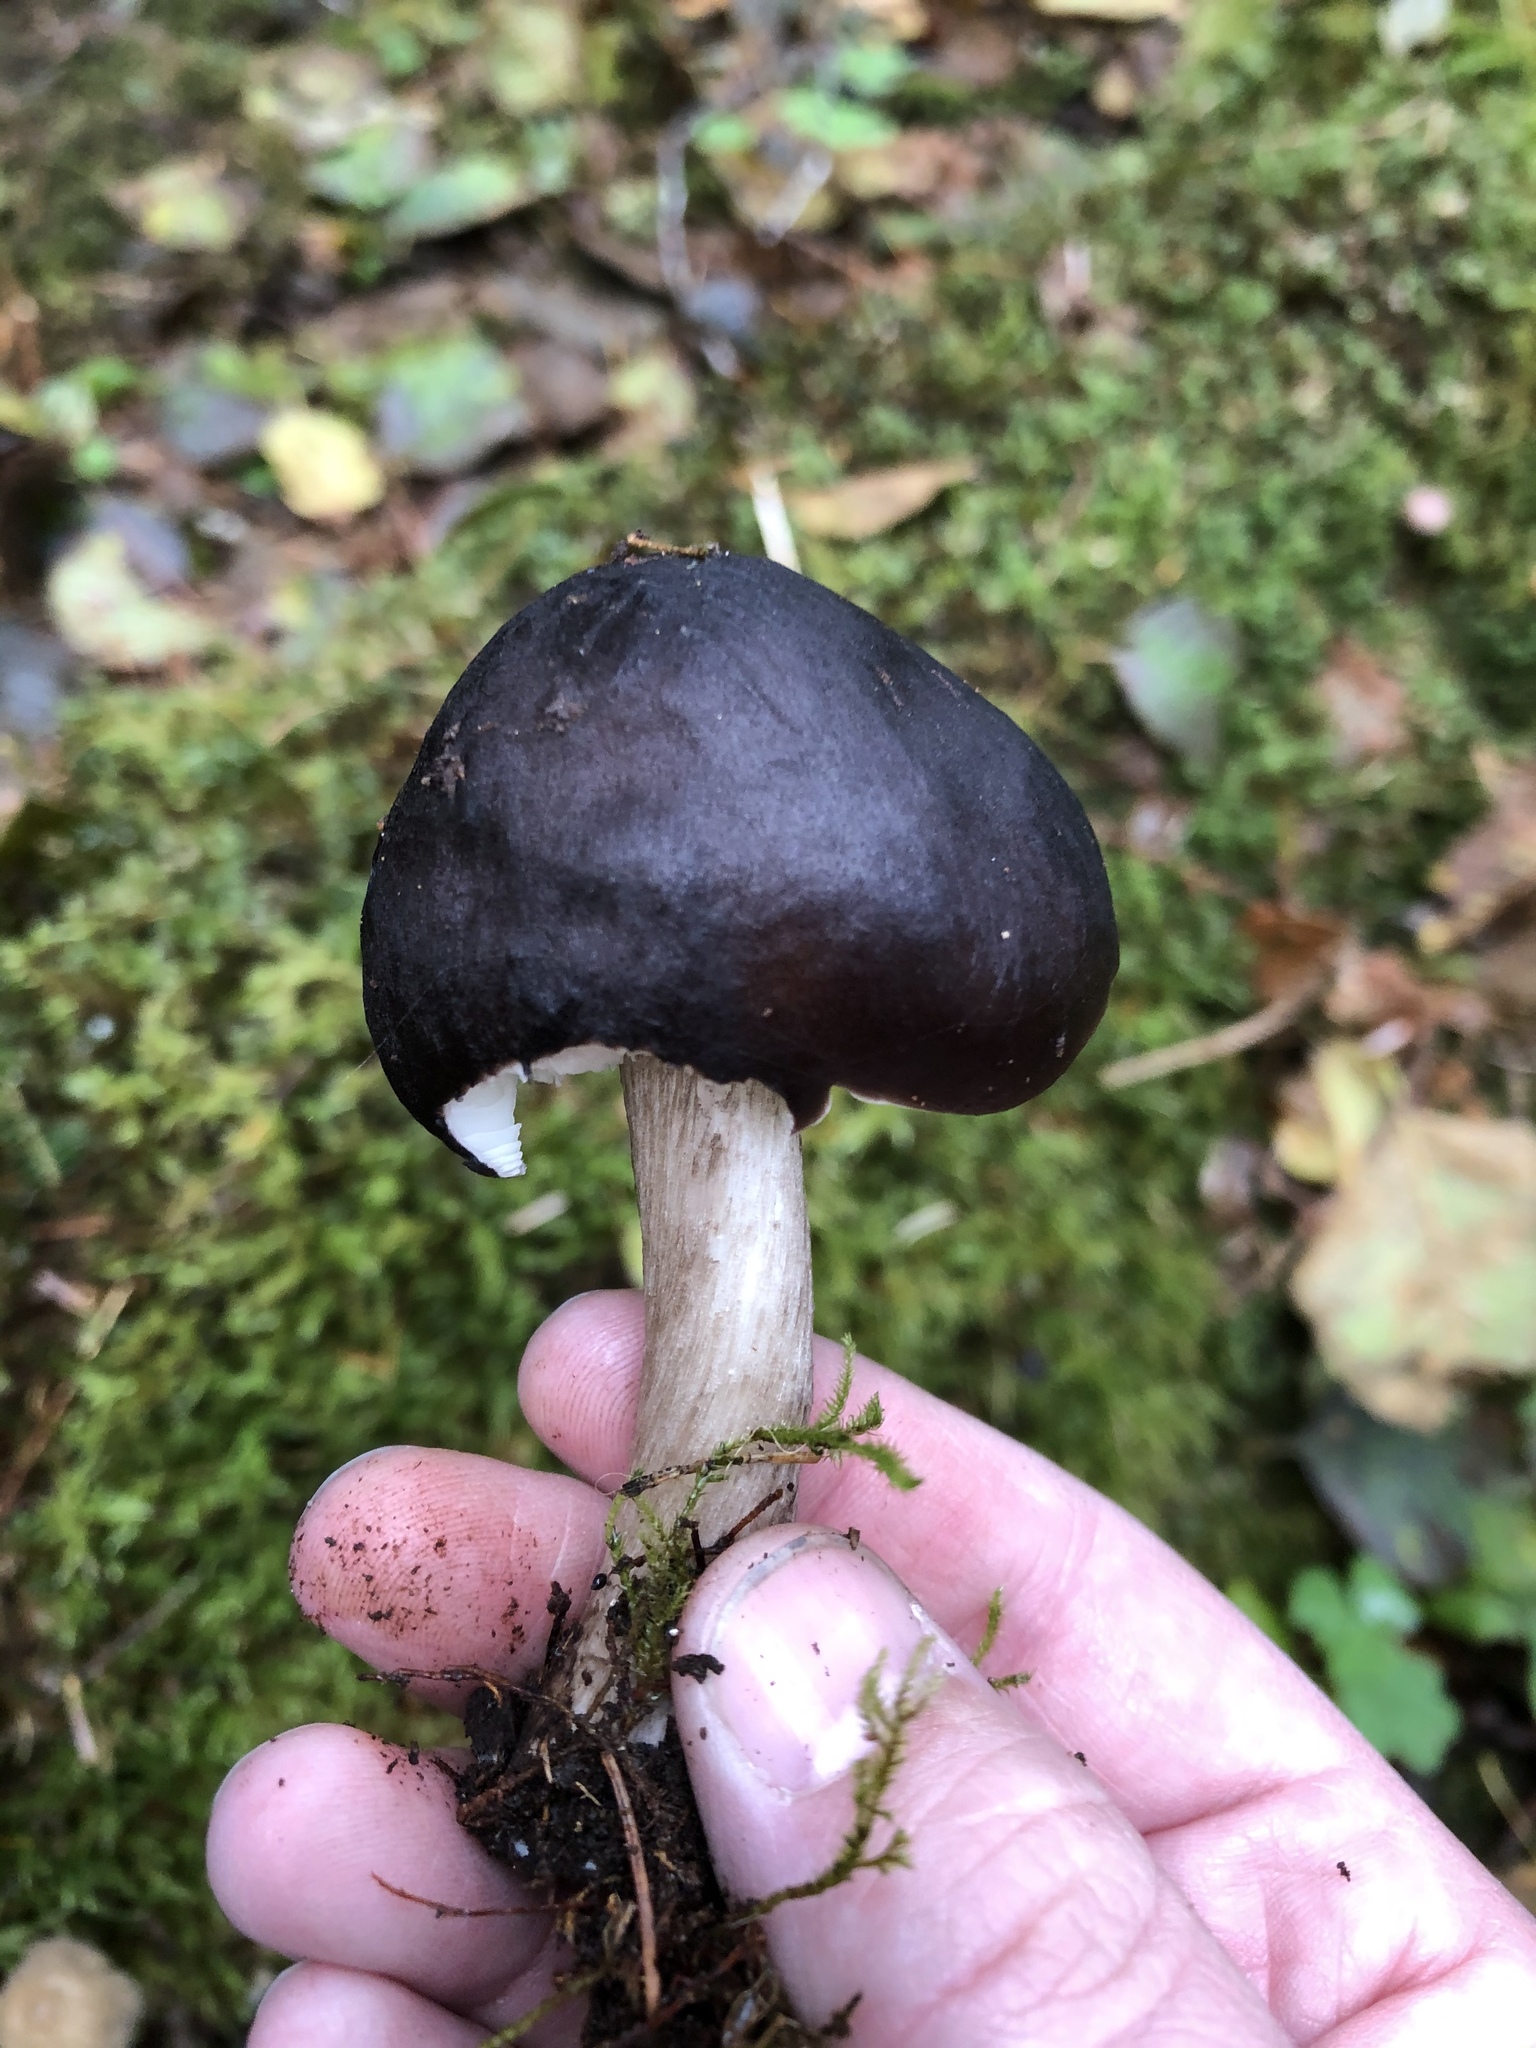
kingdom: Fungi
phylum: Basidiomycota
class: Agaricomycetes
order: Agaricales
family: Pluteaceae
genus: Pluteus
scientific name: Pluteus exilis
